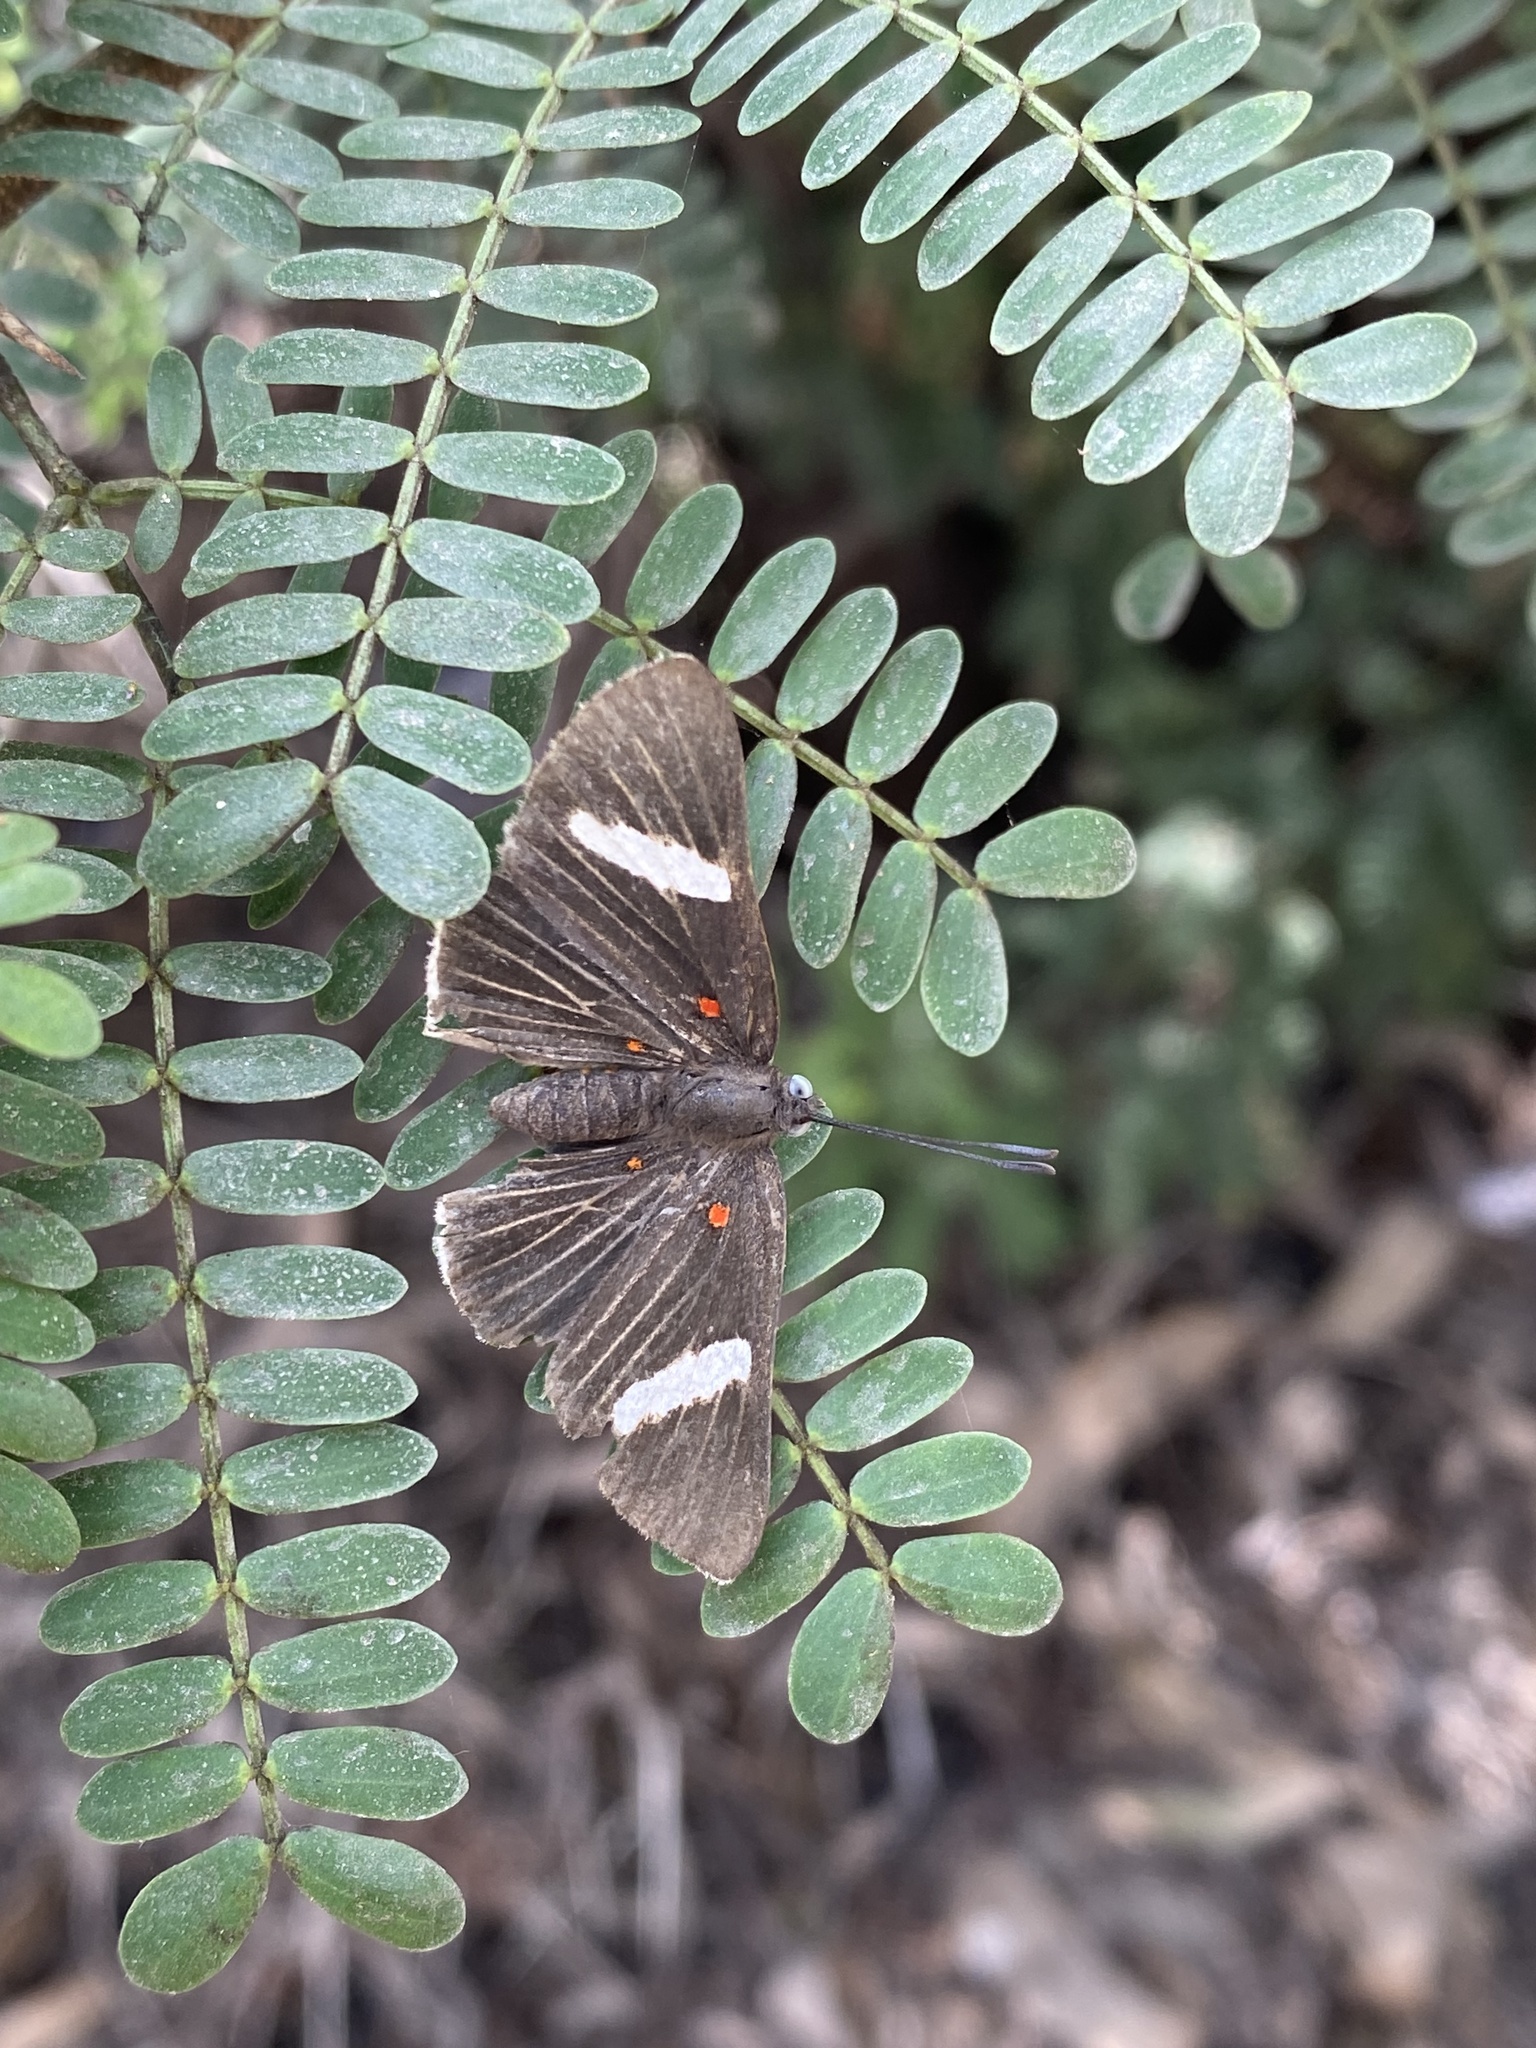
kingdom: Animalia
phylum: Arthropoda
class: Insecta
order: Lepidoptera
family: Lycaenidae
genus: Melanis
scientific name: Melanis
